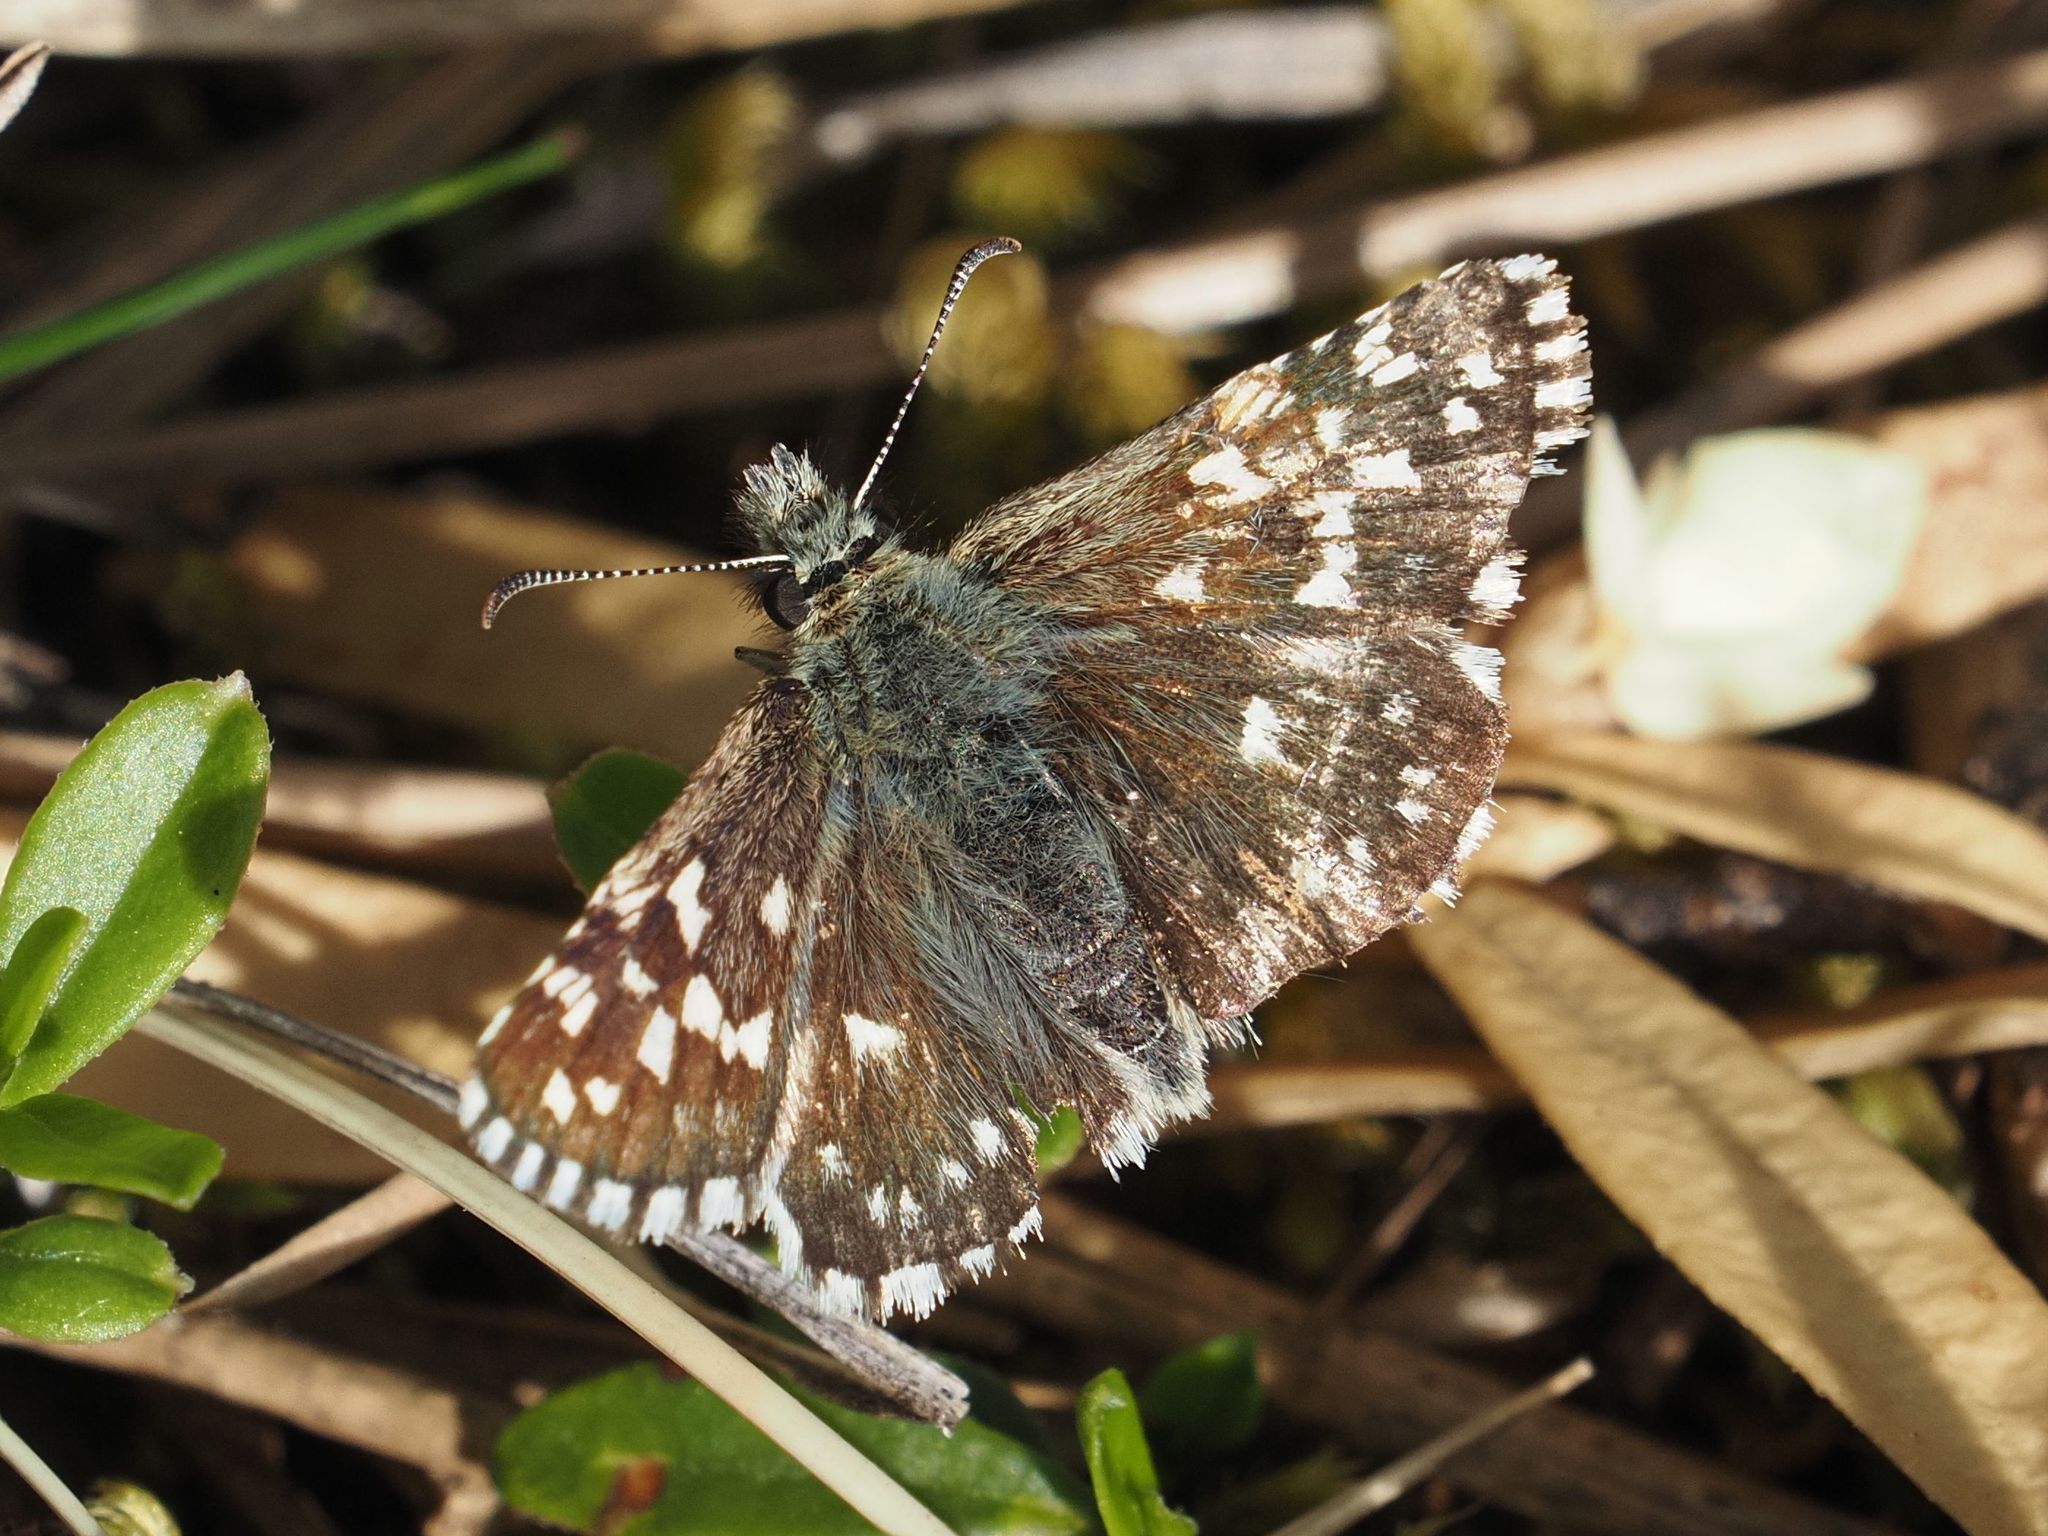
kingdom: Animalia
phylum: Arthropoda
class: Insecta
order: Lepidoptera
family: Hesperiidae
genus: Pyrgus
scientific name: Pyrgus malvae
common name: Grizzled skipper
